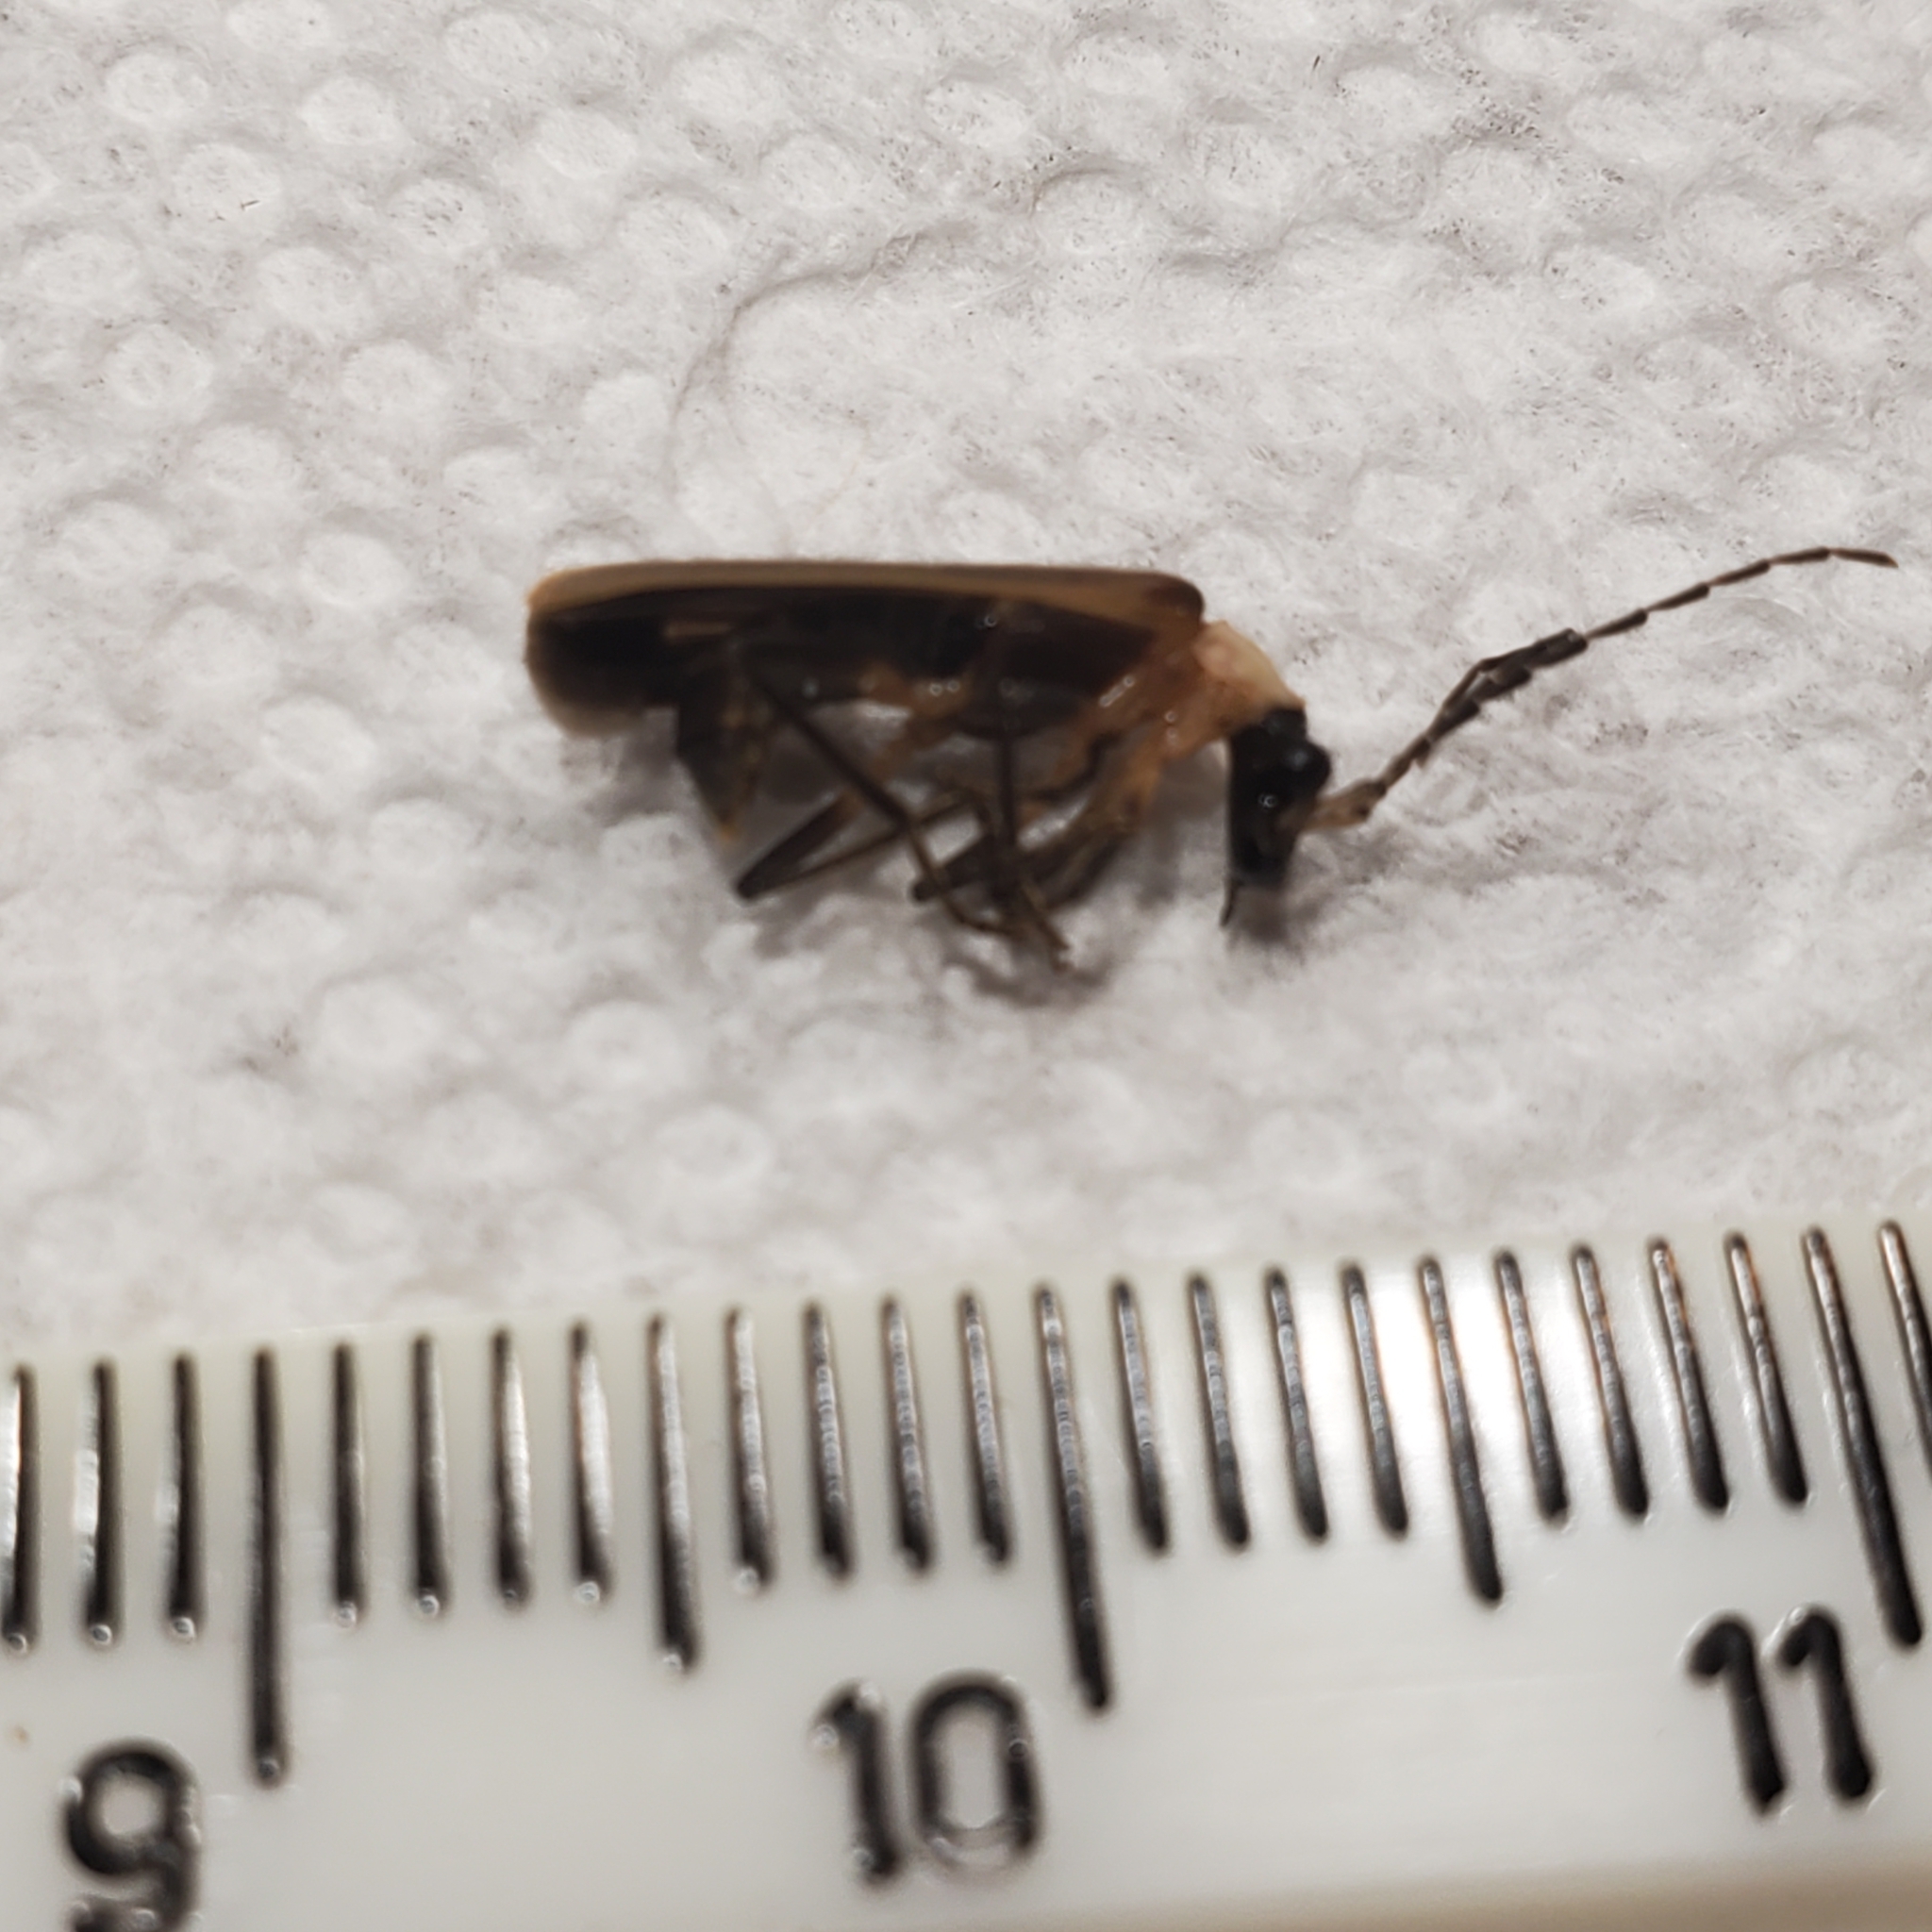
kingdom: Animalia
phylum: Arthropoda
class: Insecta
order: Coleoptera
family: Cantharidae
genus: Podabrus
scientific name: Podabrus
